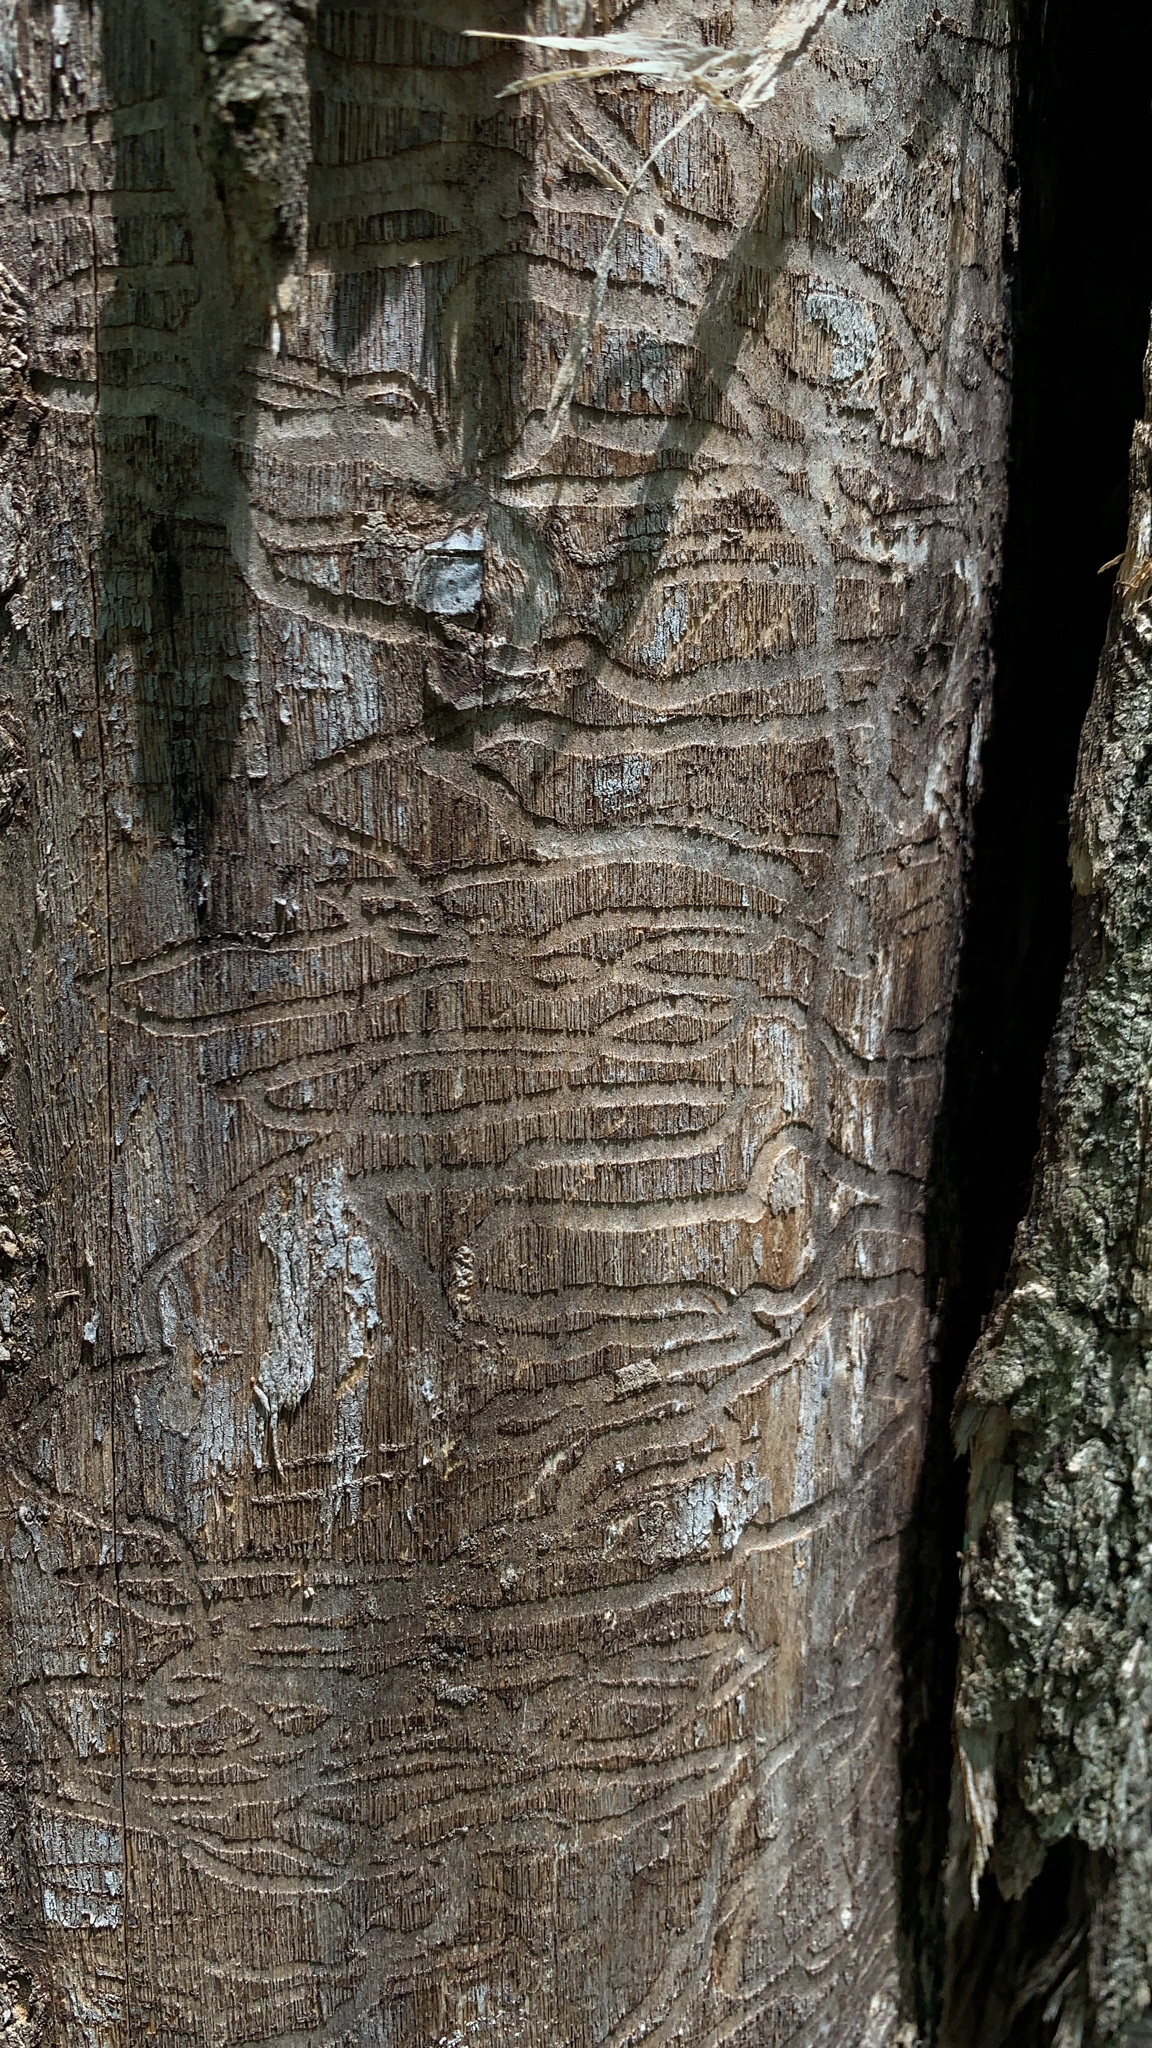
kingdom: Animalia
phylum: Arthropoda
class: Insecta
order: Coleoptera
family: Buprestidae
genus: Agrilus
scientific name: Agrilus planipennis
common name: Emerald ash borer
